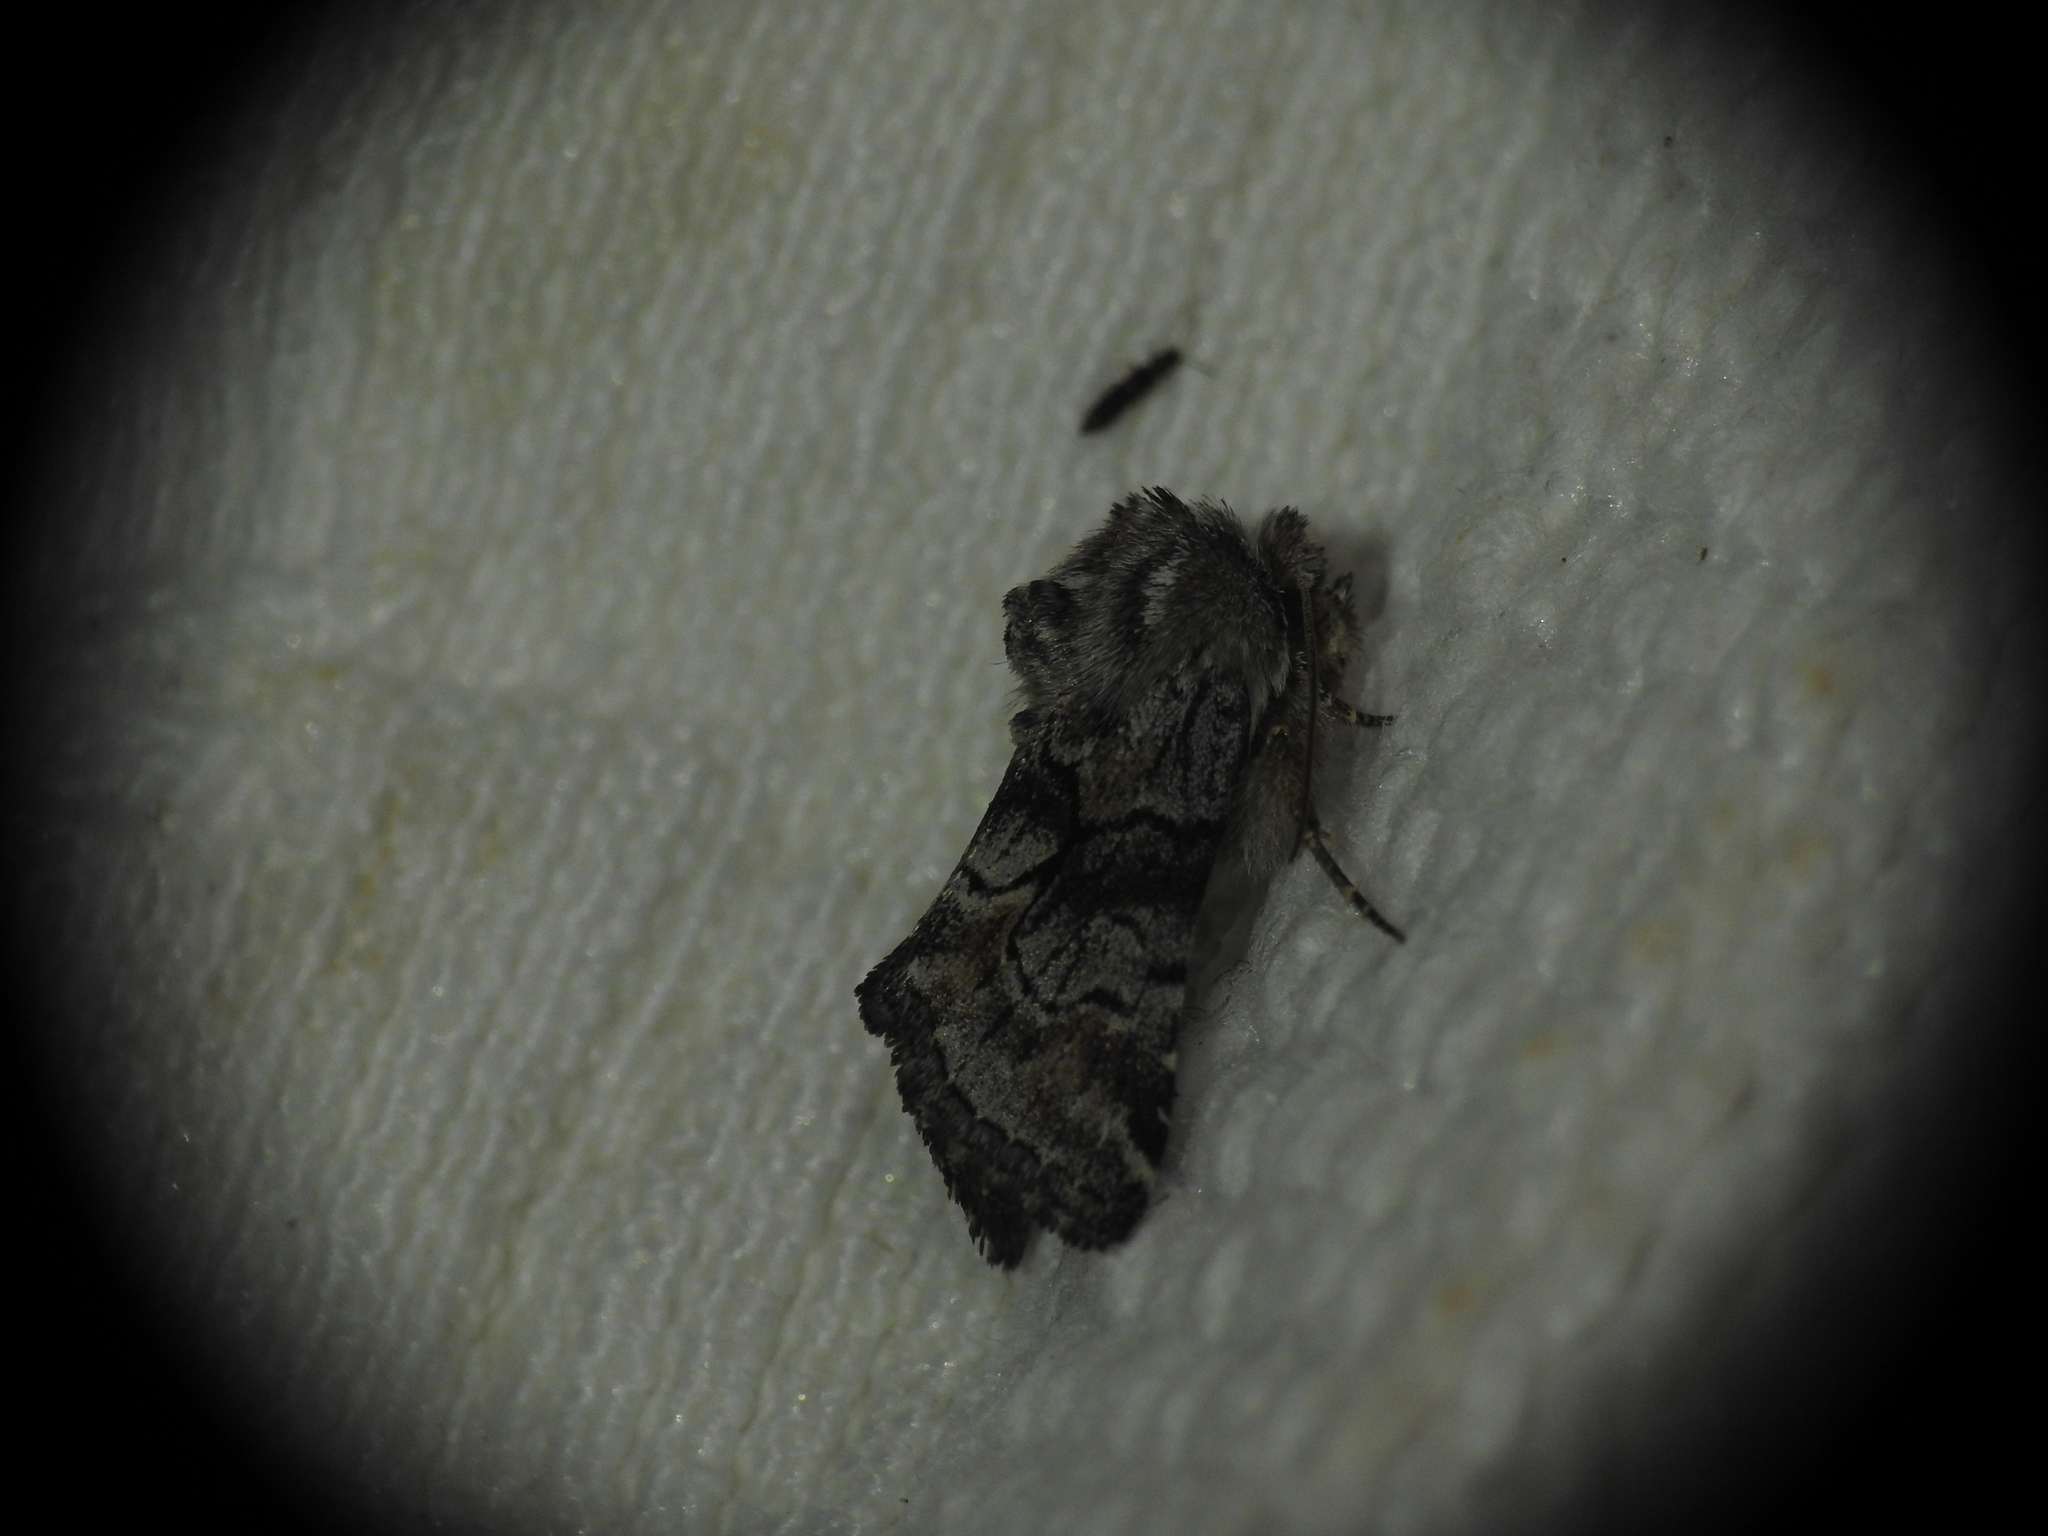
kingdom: Animalia
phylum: Arthropoda
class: Insecta
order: Lepidoptera
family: Noctuidae
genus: Cleonymia
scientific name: Cleonymia yvanii
